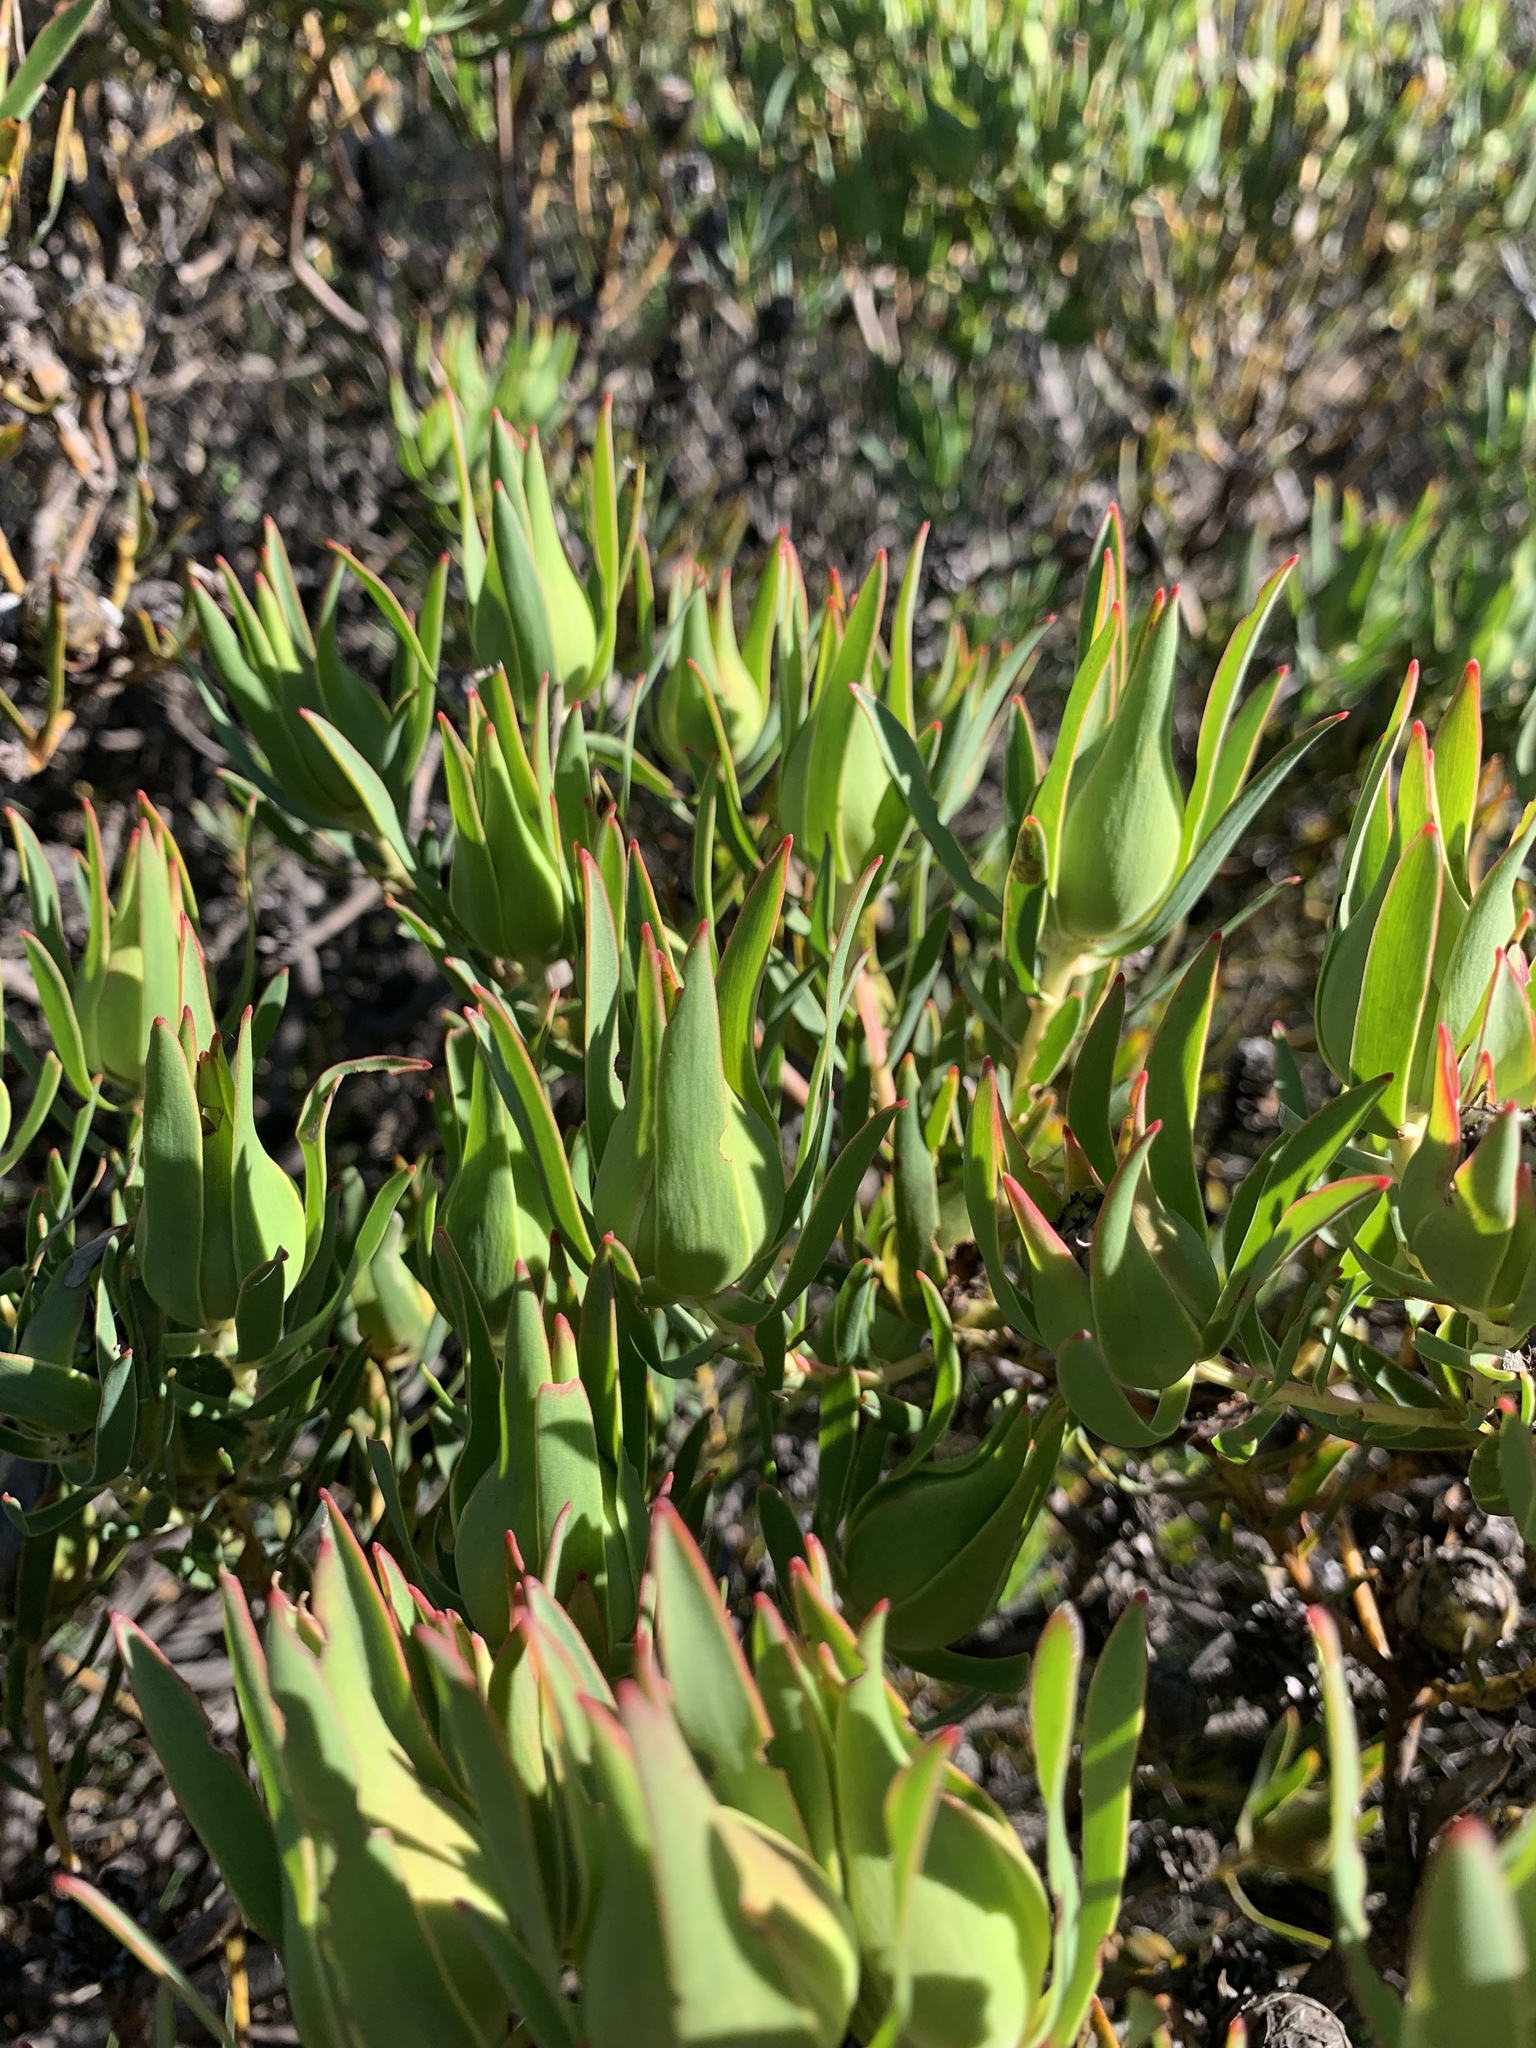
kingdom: Plantae
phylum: Tracheophyta
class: Magnoliopsida
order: Proteales
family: Proteaceae
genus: Leucadendron
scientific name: Leucadendron salignum
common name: Common sunshine conebush
